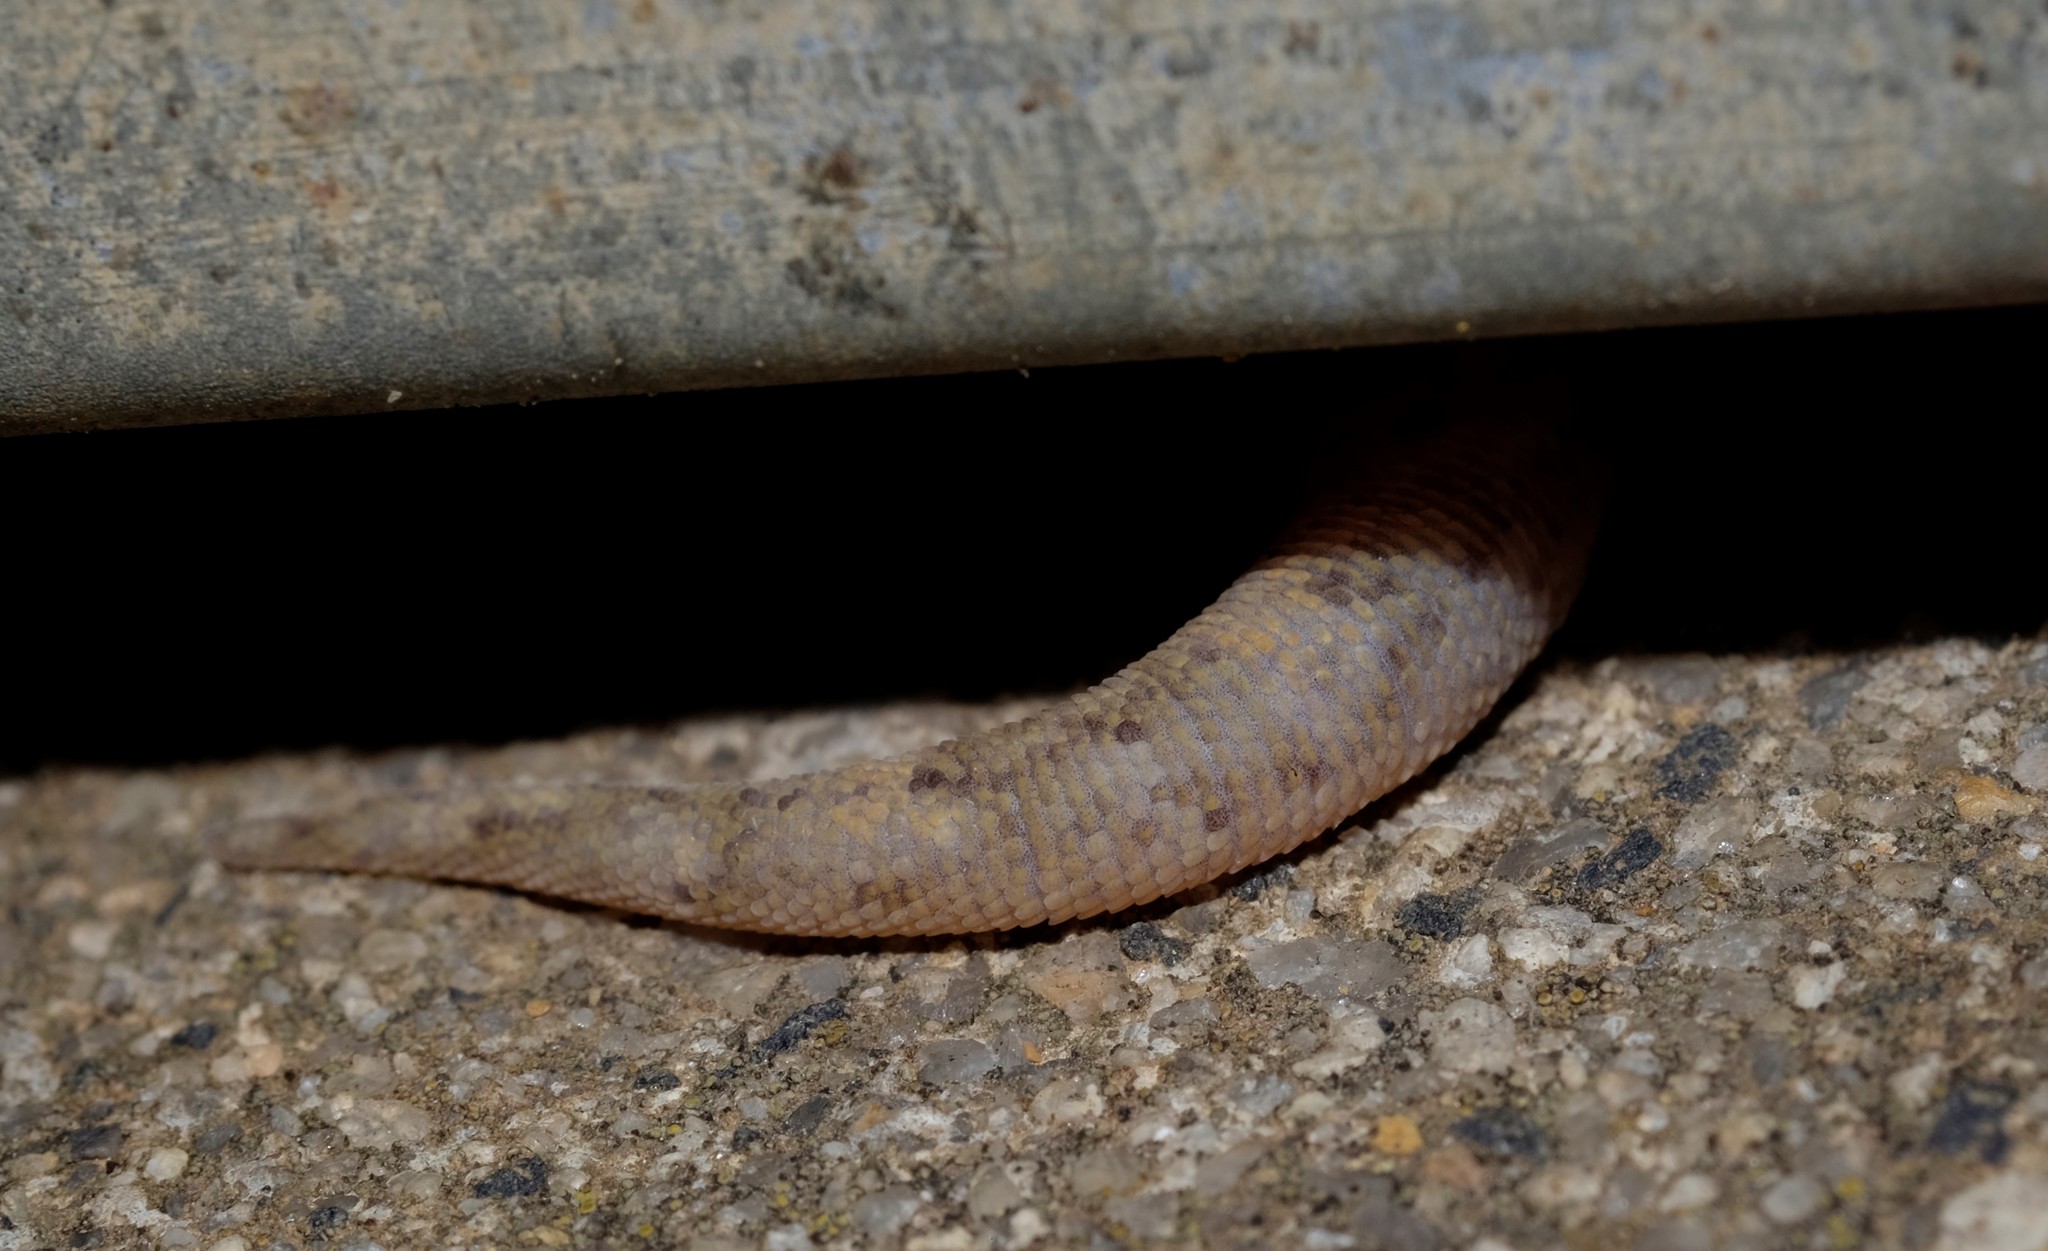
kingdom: Animalia
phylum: Chordata
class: Squamata
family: Gekkonidae
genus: Christinus
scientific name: Christinus marmoratus
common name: Marbled gecko
